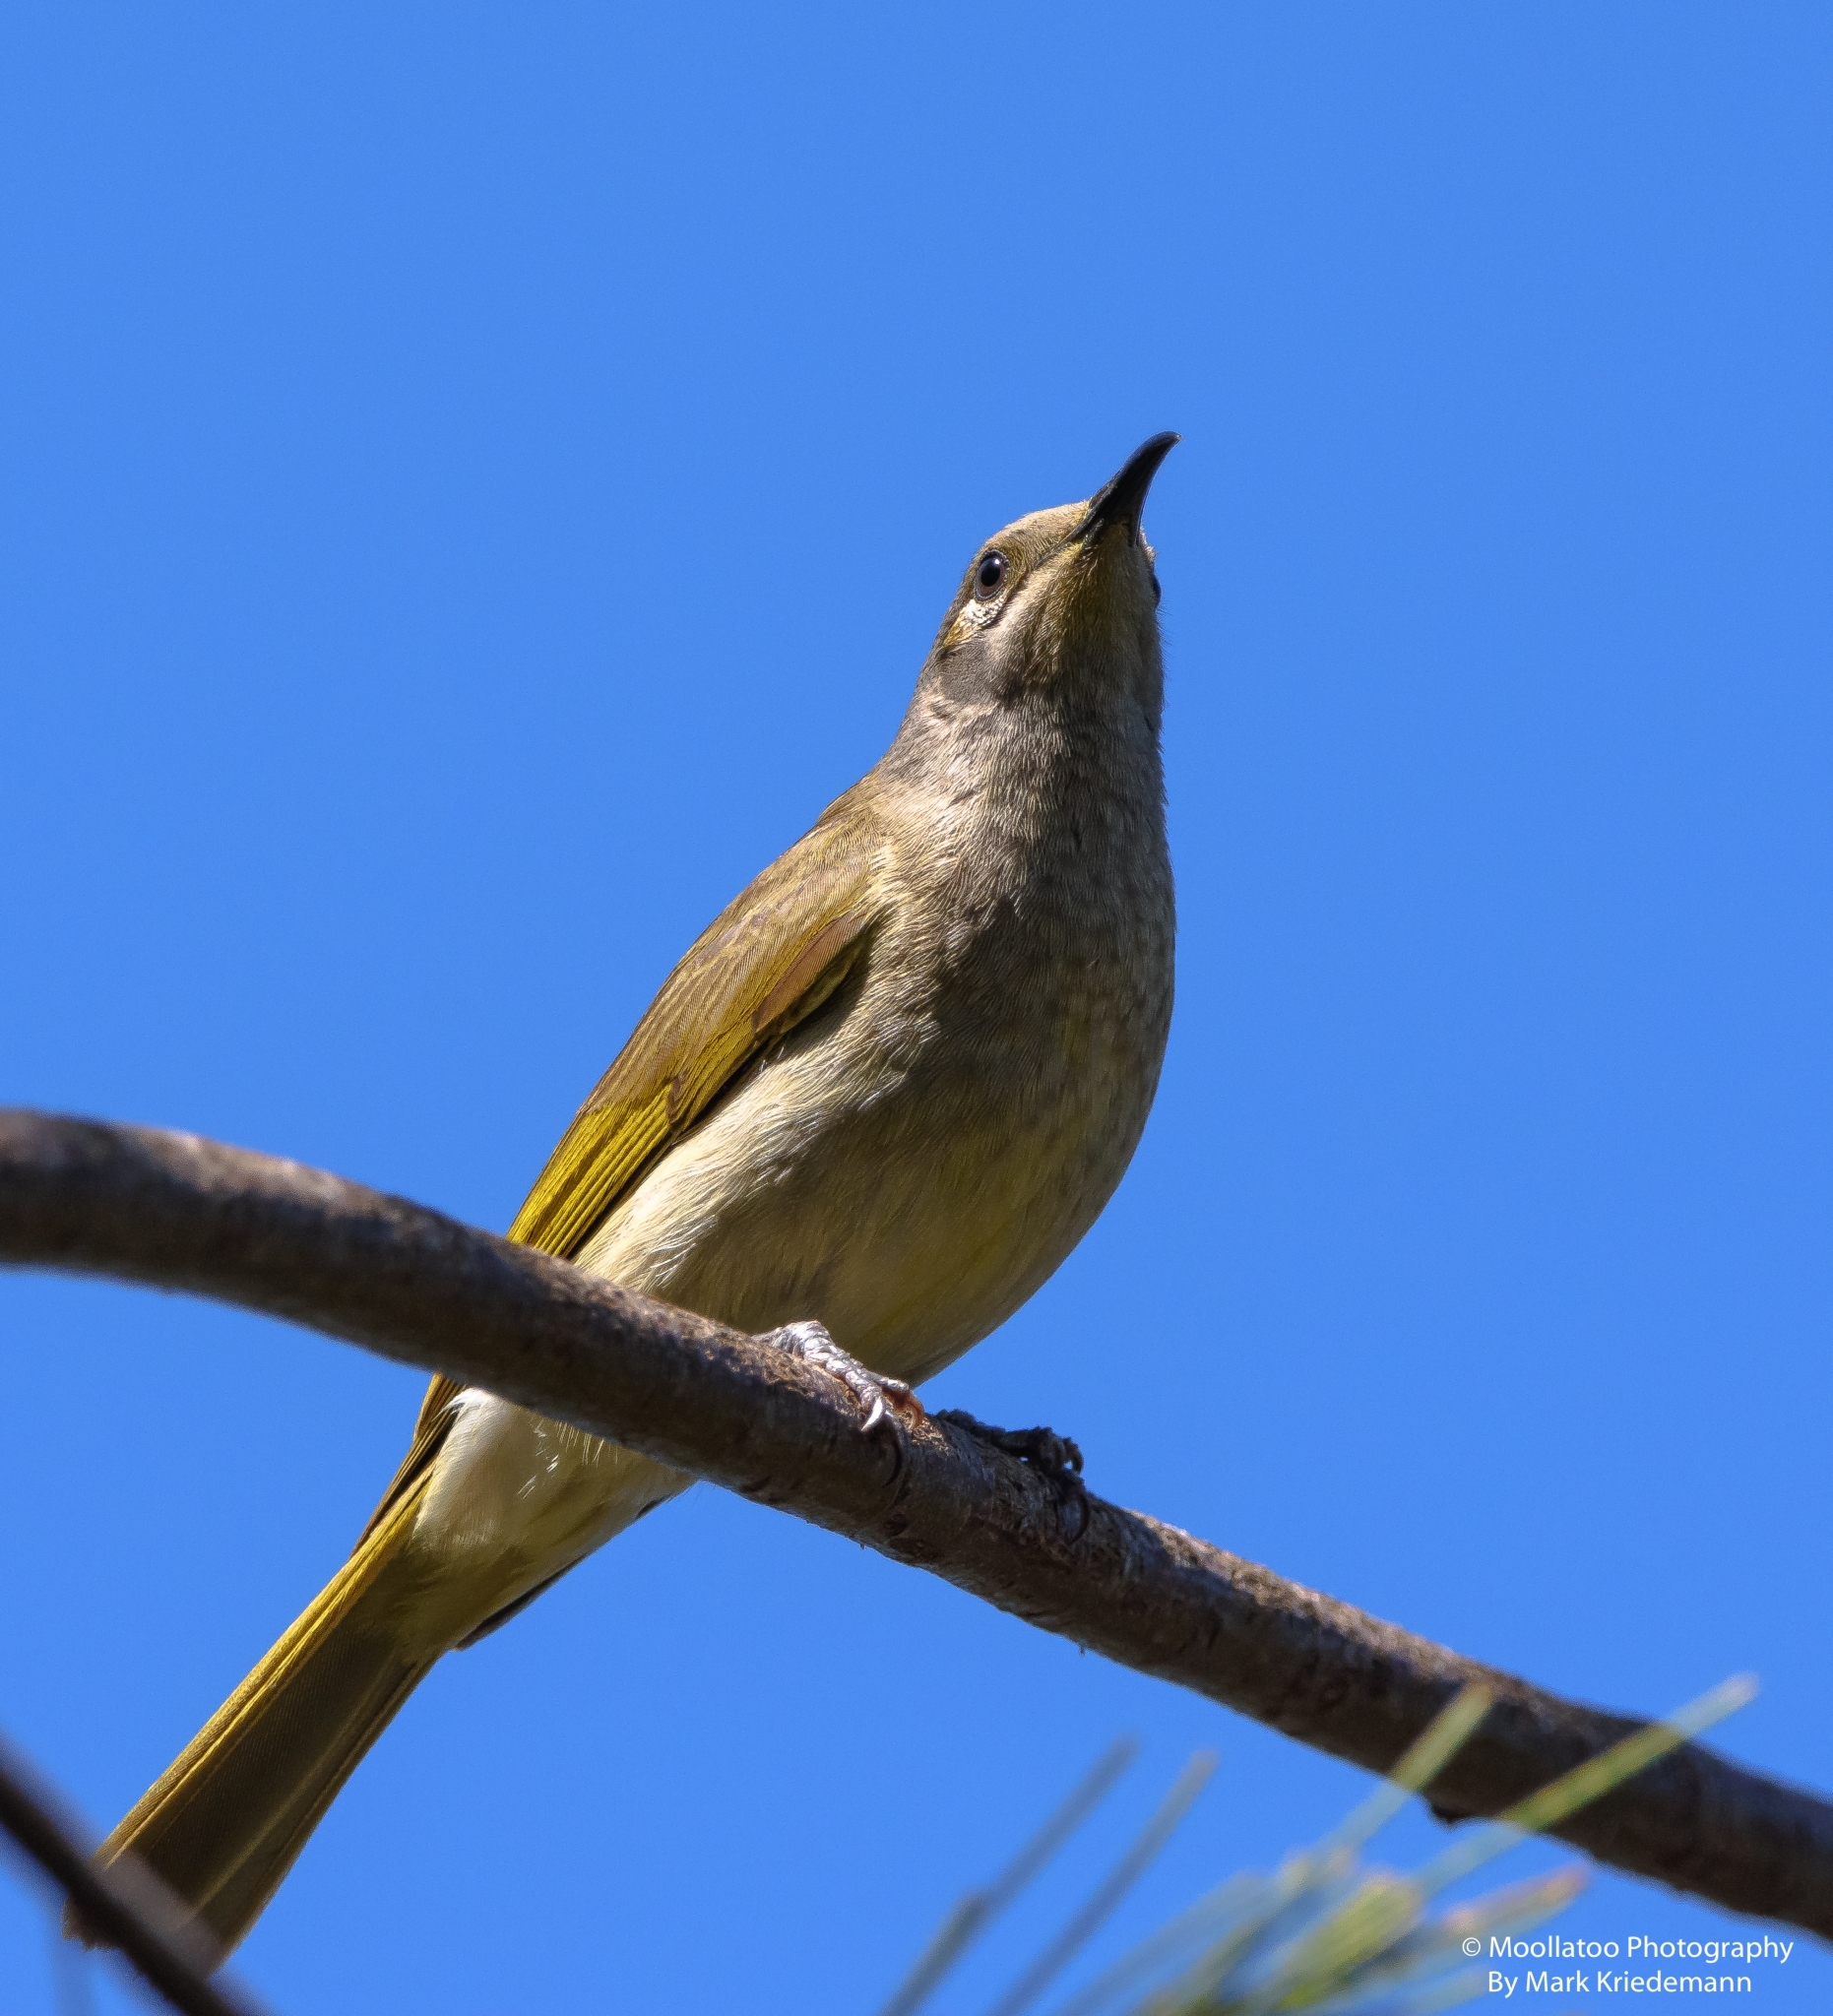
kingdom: Animalia
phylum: Chordata
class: Aves
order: Passeriformes
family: Meliphagidae
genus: Lichmera
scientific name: Lichmera indistincta
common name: Brown honeyeater
